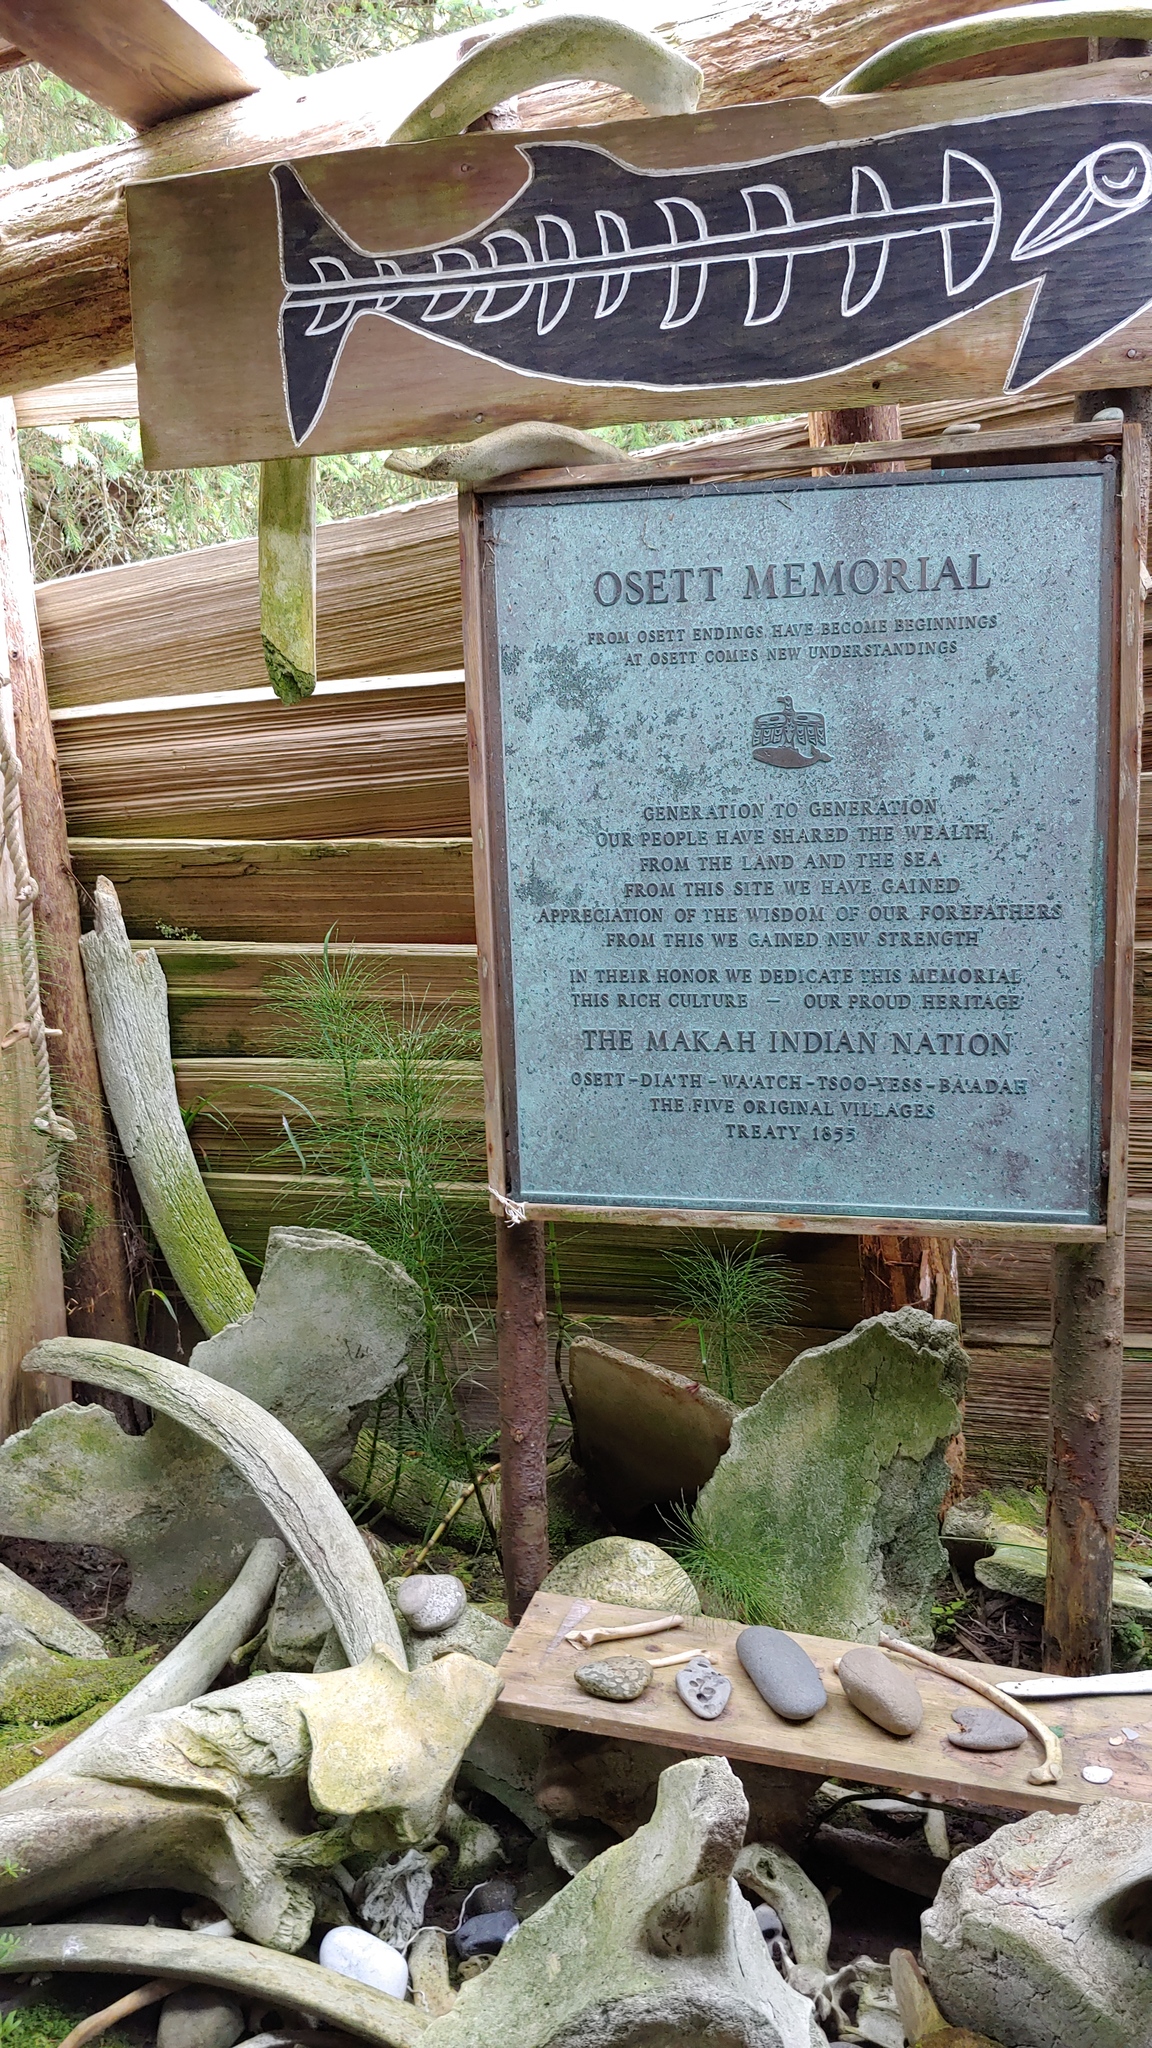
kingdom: Plantae
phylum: Tracheophyta
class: Polypodiopsida
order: Equisetales
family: Equisetaceae
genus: Equisetum
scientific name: Equisetum braunii
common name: Braun's horsetail
